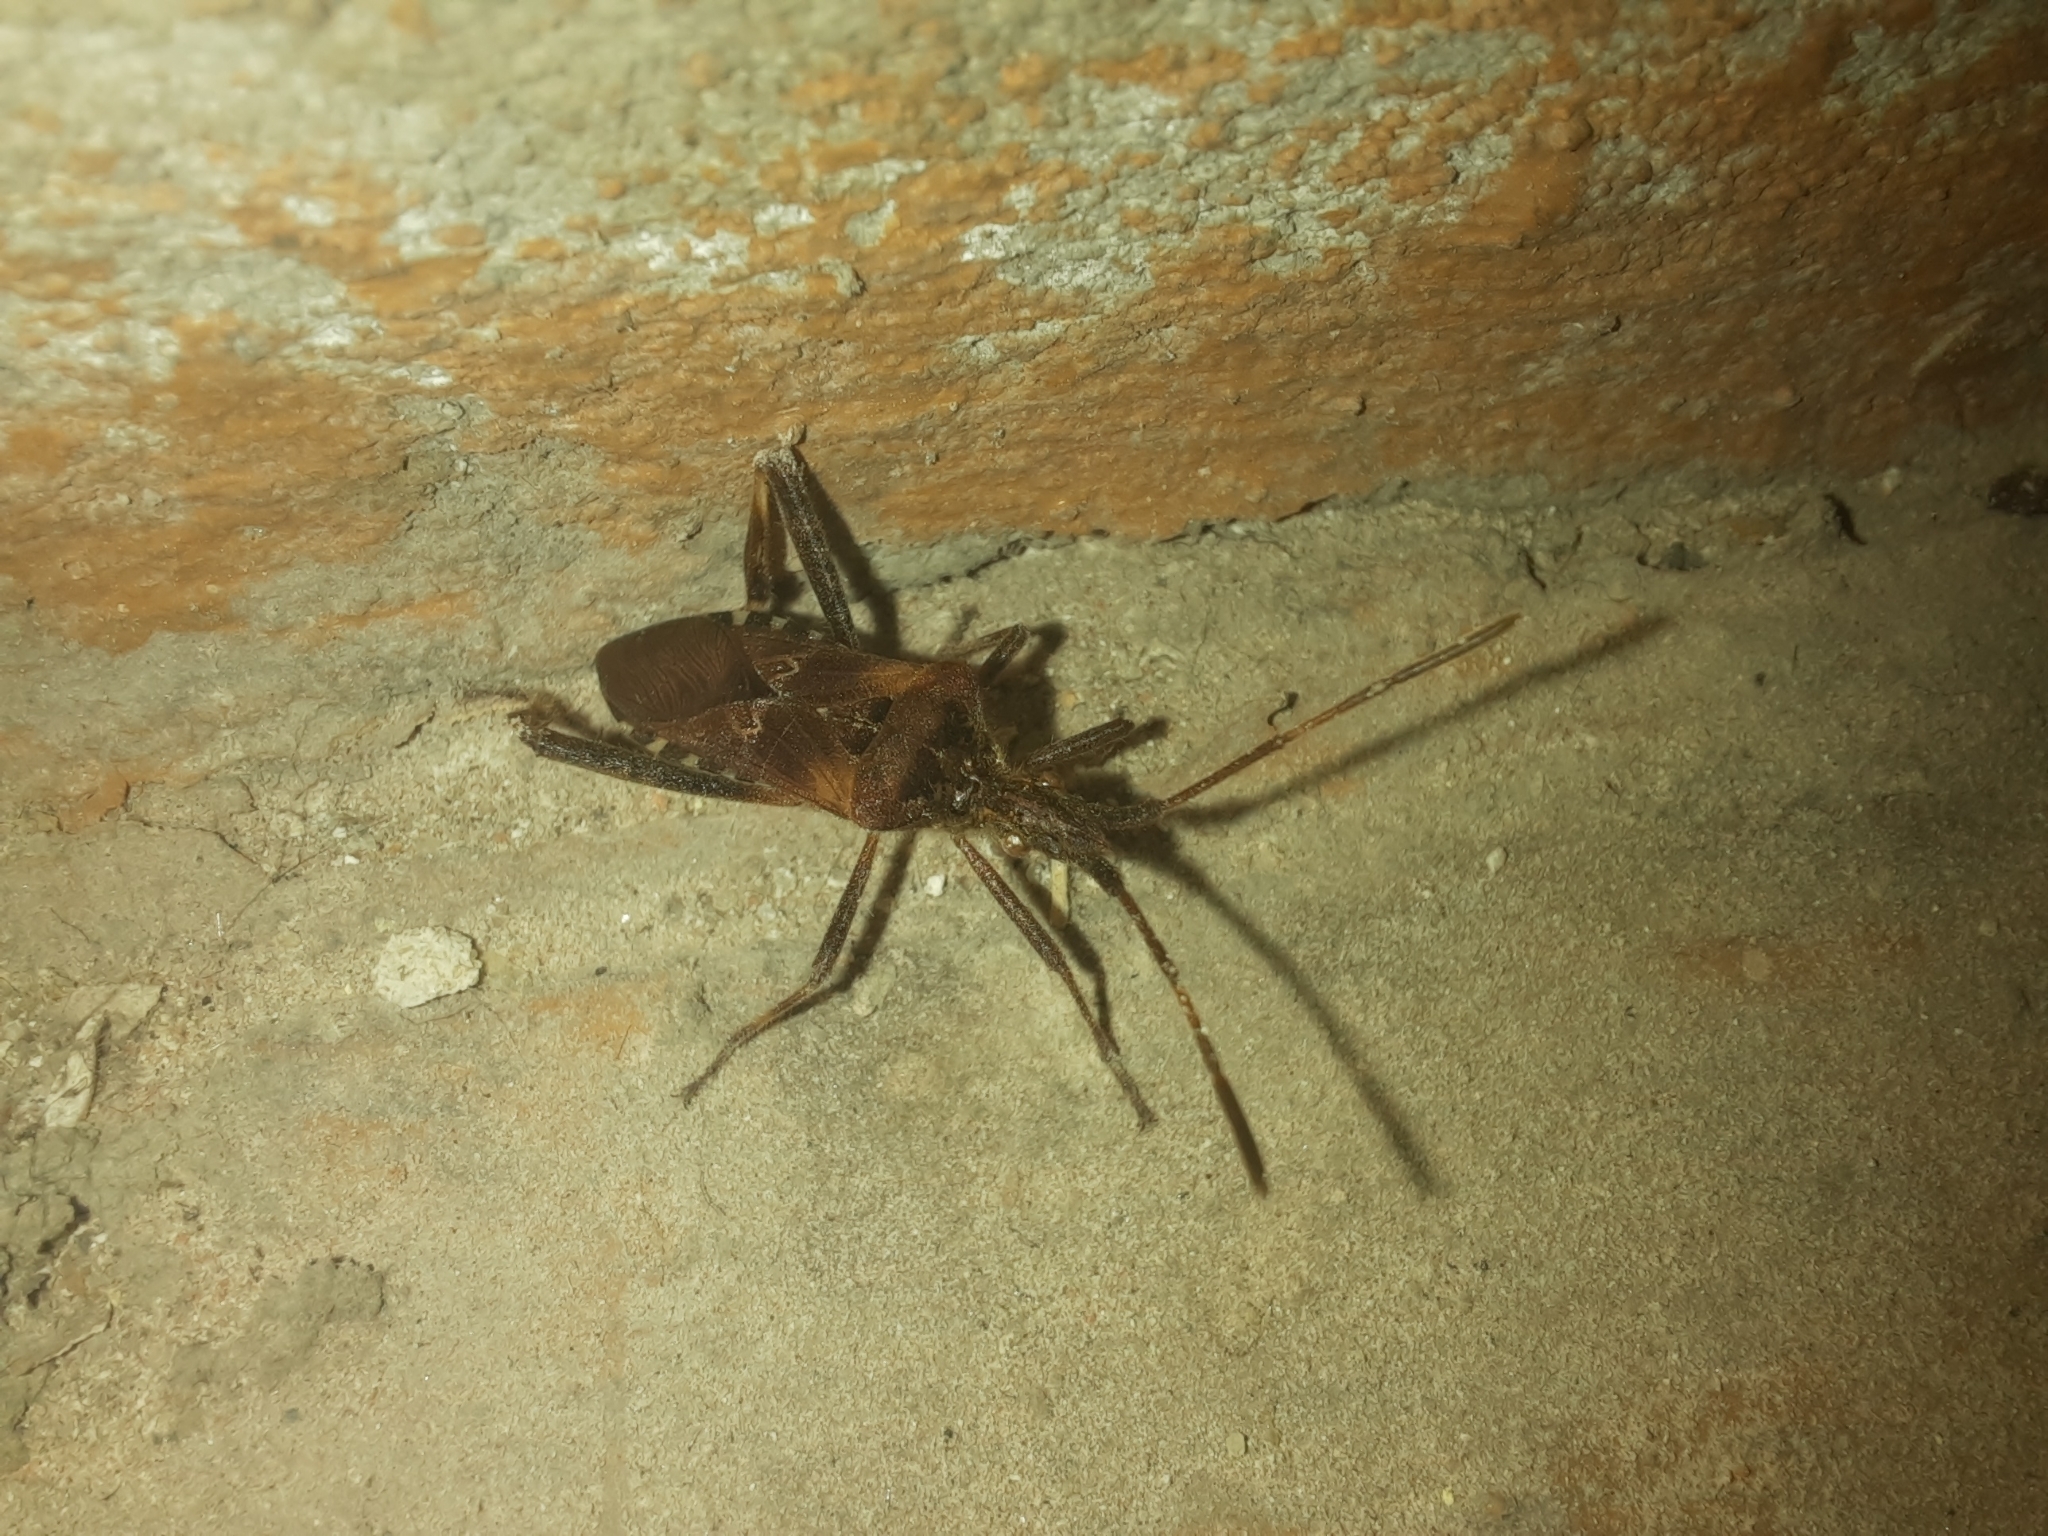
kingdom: Animalia
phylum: Arthropoda
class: Insecta
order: Hemiptera
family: Coreidae
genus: Leptoglossus
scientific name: Leptoglossus occidentalis
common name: Western conifer-seed bug
